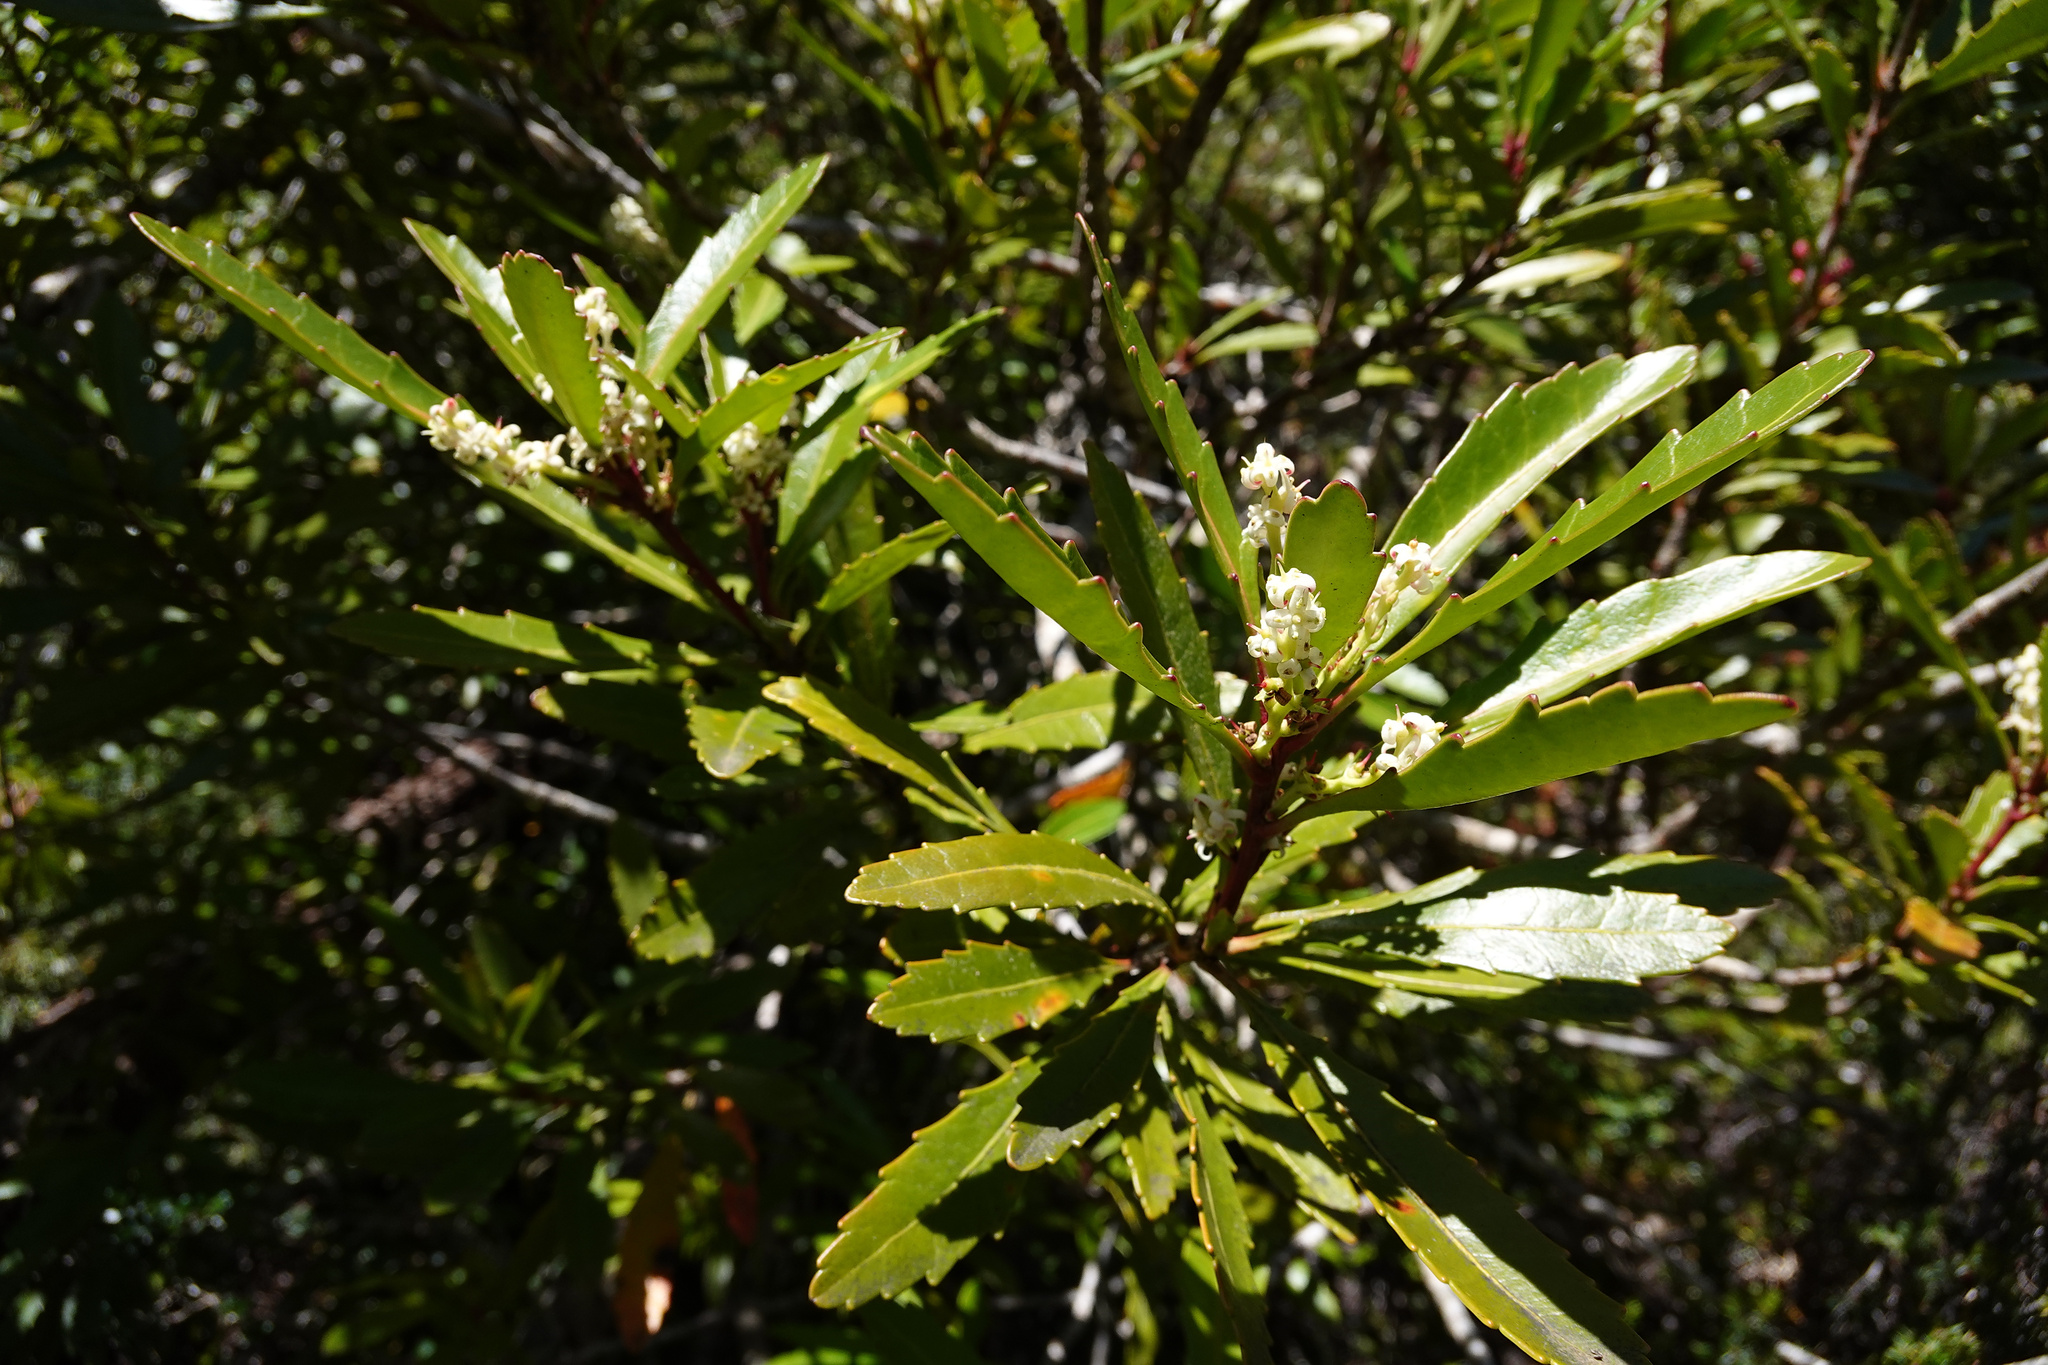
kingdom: Plantae
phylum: Tracheophyta
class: Magnoliopsida
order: Proteales
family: Proteaceae
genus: Cenarrhenes
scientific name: Cenarrhenes nitida
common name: Native plum
